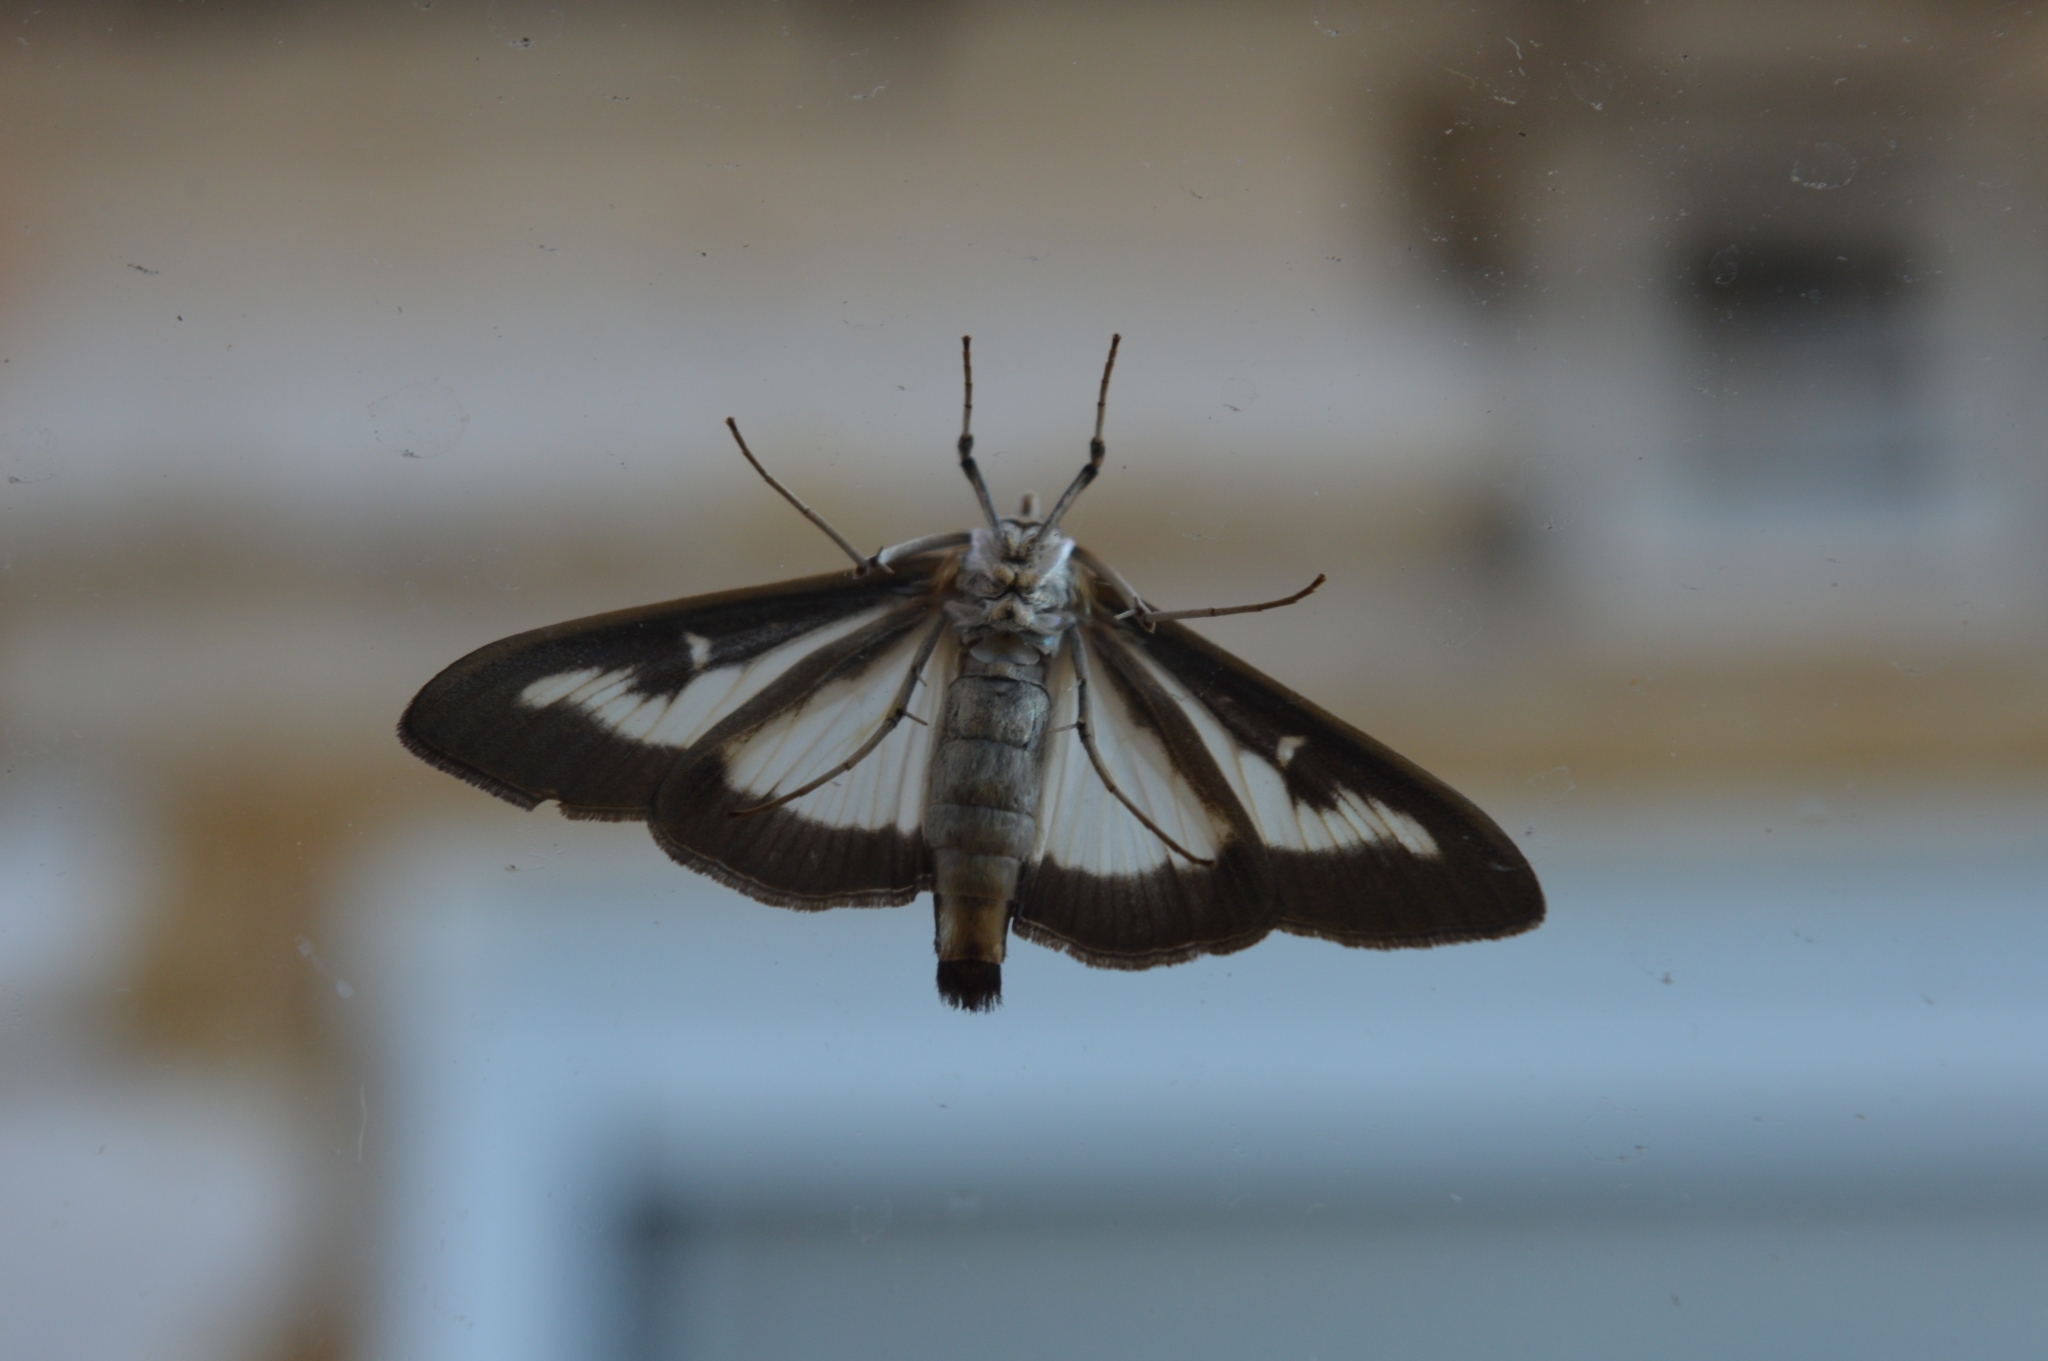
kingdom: Animalia
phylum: Arthropoda
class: Insecta
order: Lepidoptera
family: Crambidae
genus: Cydalima
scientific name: Cydalima perspectalis
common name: Box tree moth
